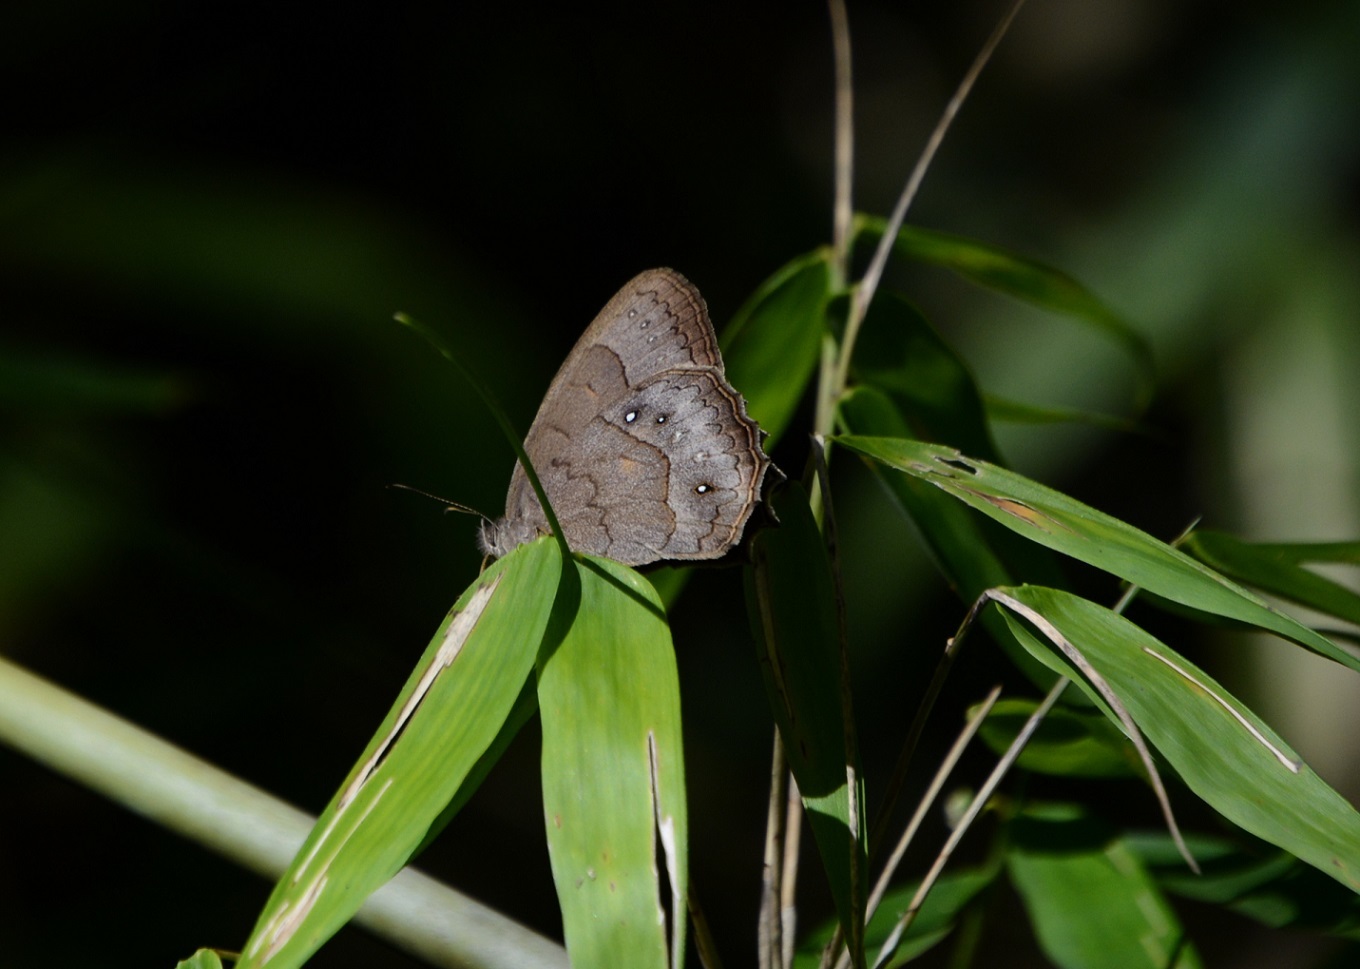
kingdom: Animalia
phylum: Arthropoda
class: Insecta
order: Lepidoptera
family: Nymphalidae
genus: Taygetina
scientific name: Taygetina kerea
